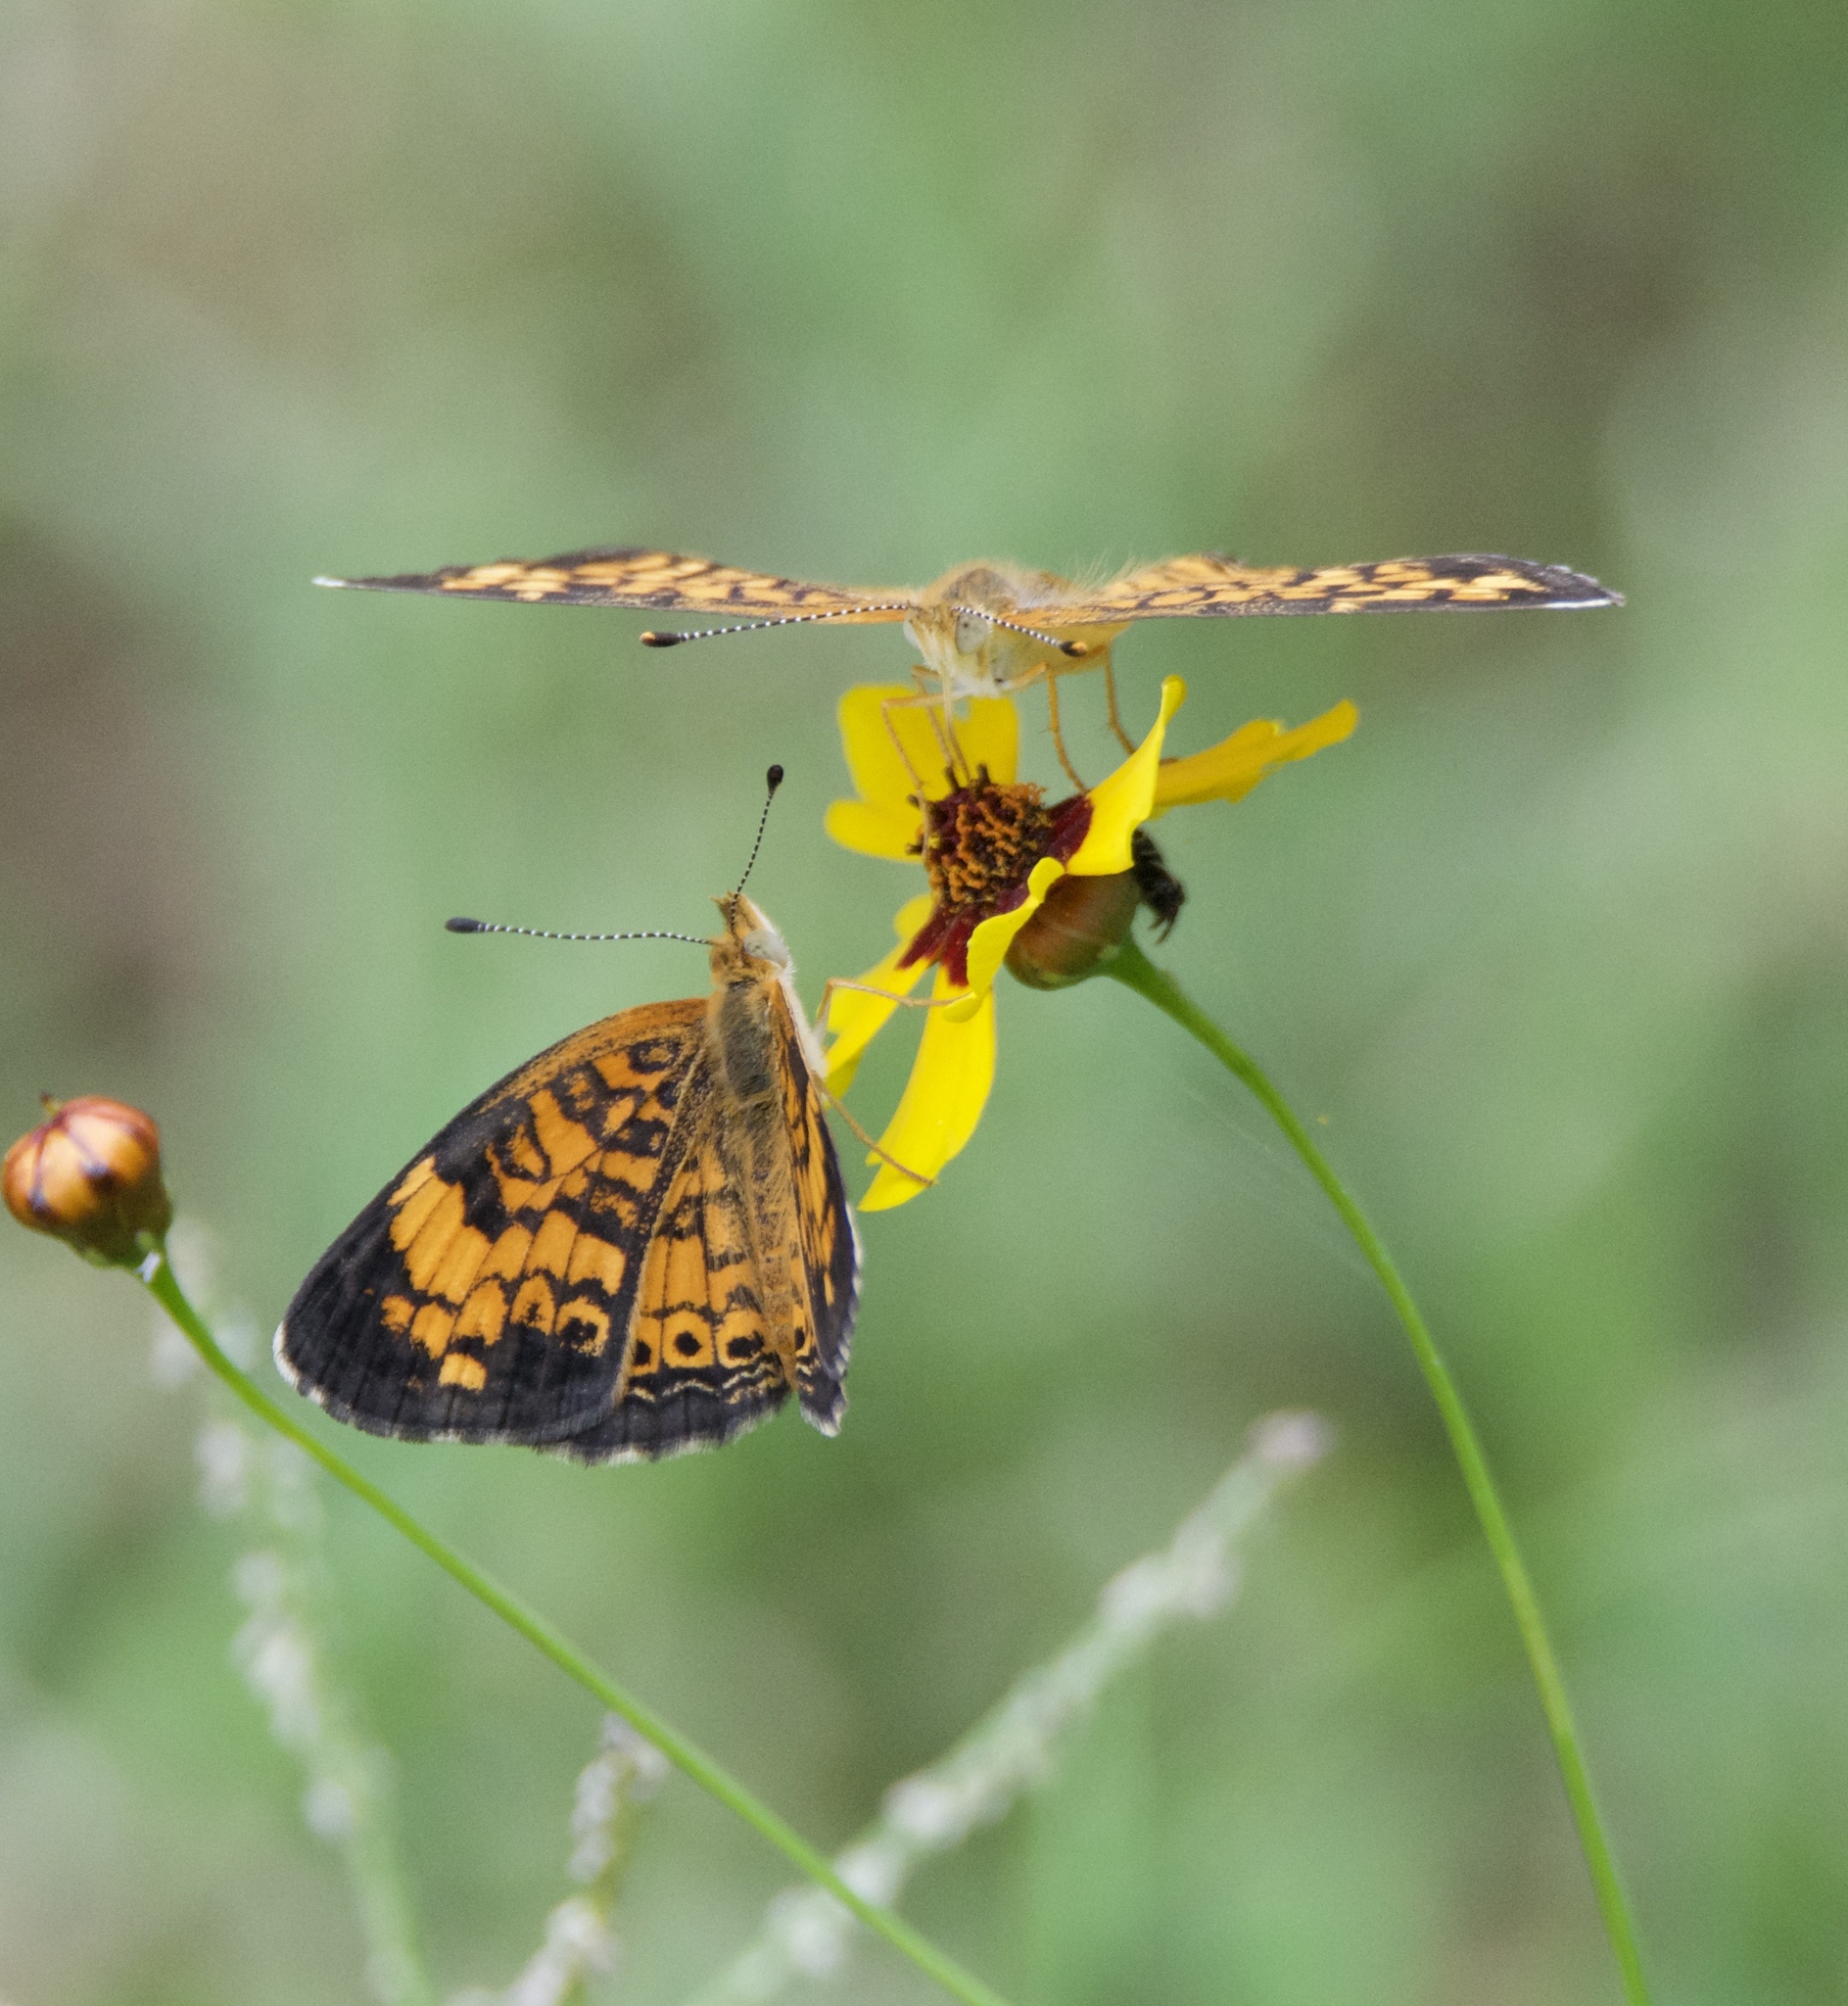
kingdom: Animalia
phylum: Arthropoda
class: Insecta
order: Lepidoptera
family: Nymphalidae
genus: Phyciodes
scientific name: Phyciodes tharos
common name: Pearl crescent
